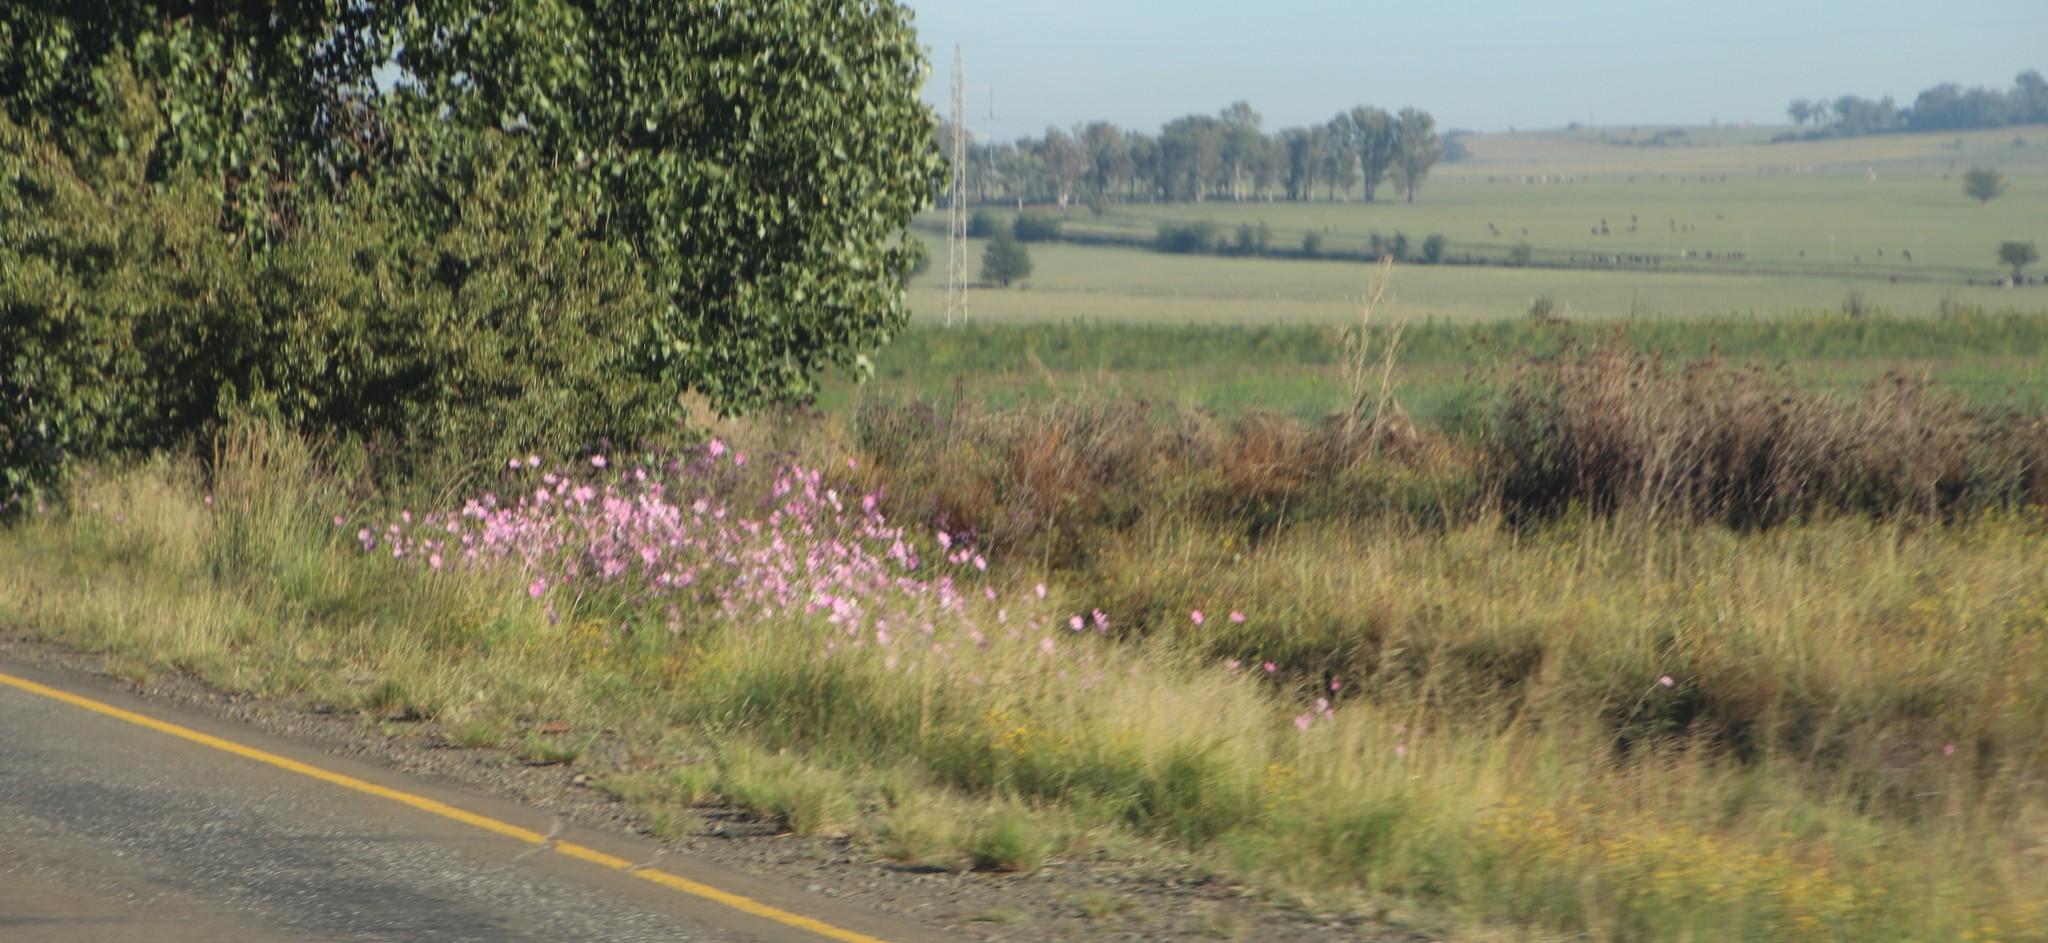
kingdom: Plantae
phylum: Tracheophyta
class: Magnoliopsida
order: Asterales
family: Asteraceae
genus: Cosmos
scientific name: Cosmos bipinnatus
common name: Garden cosmos
